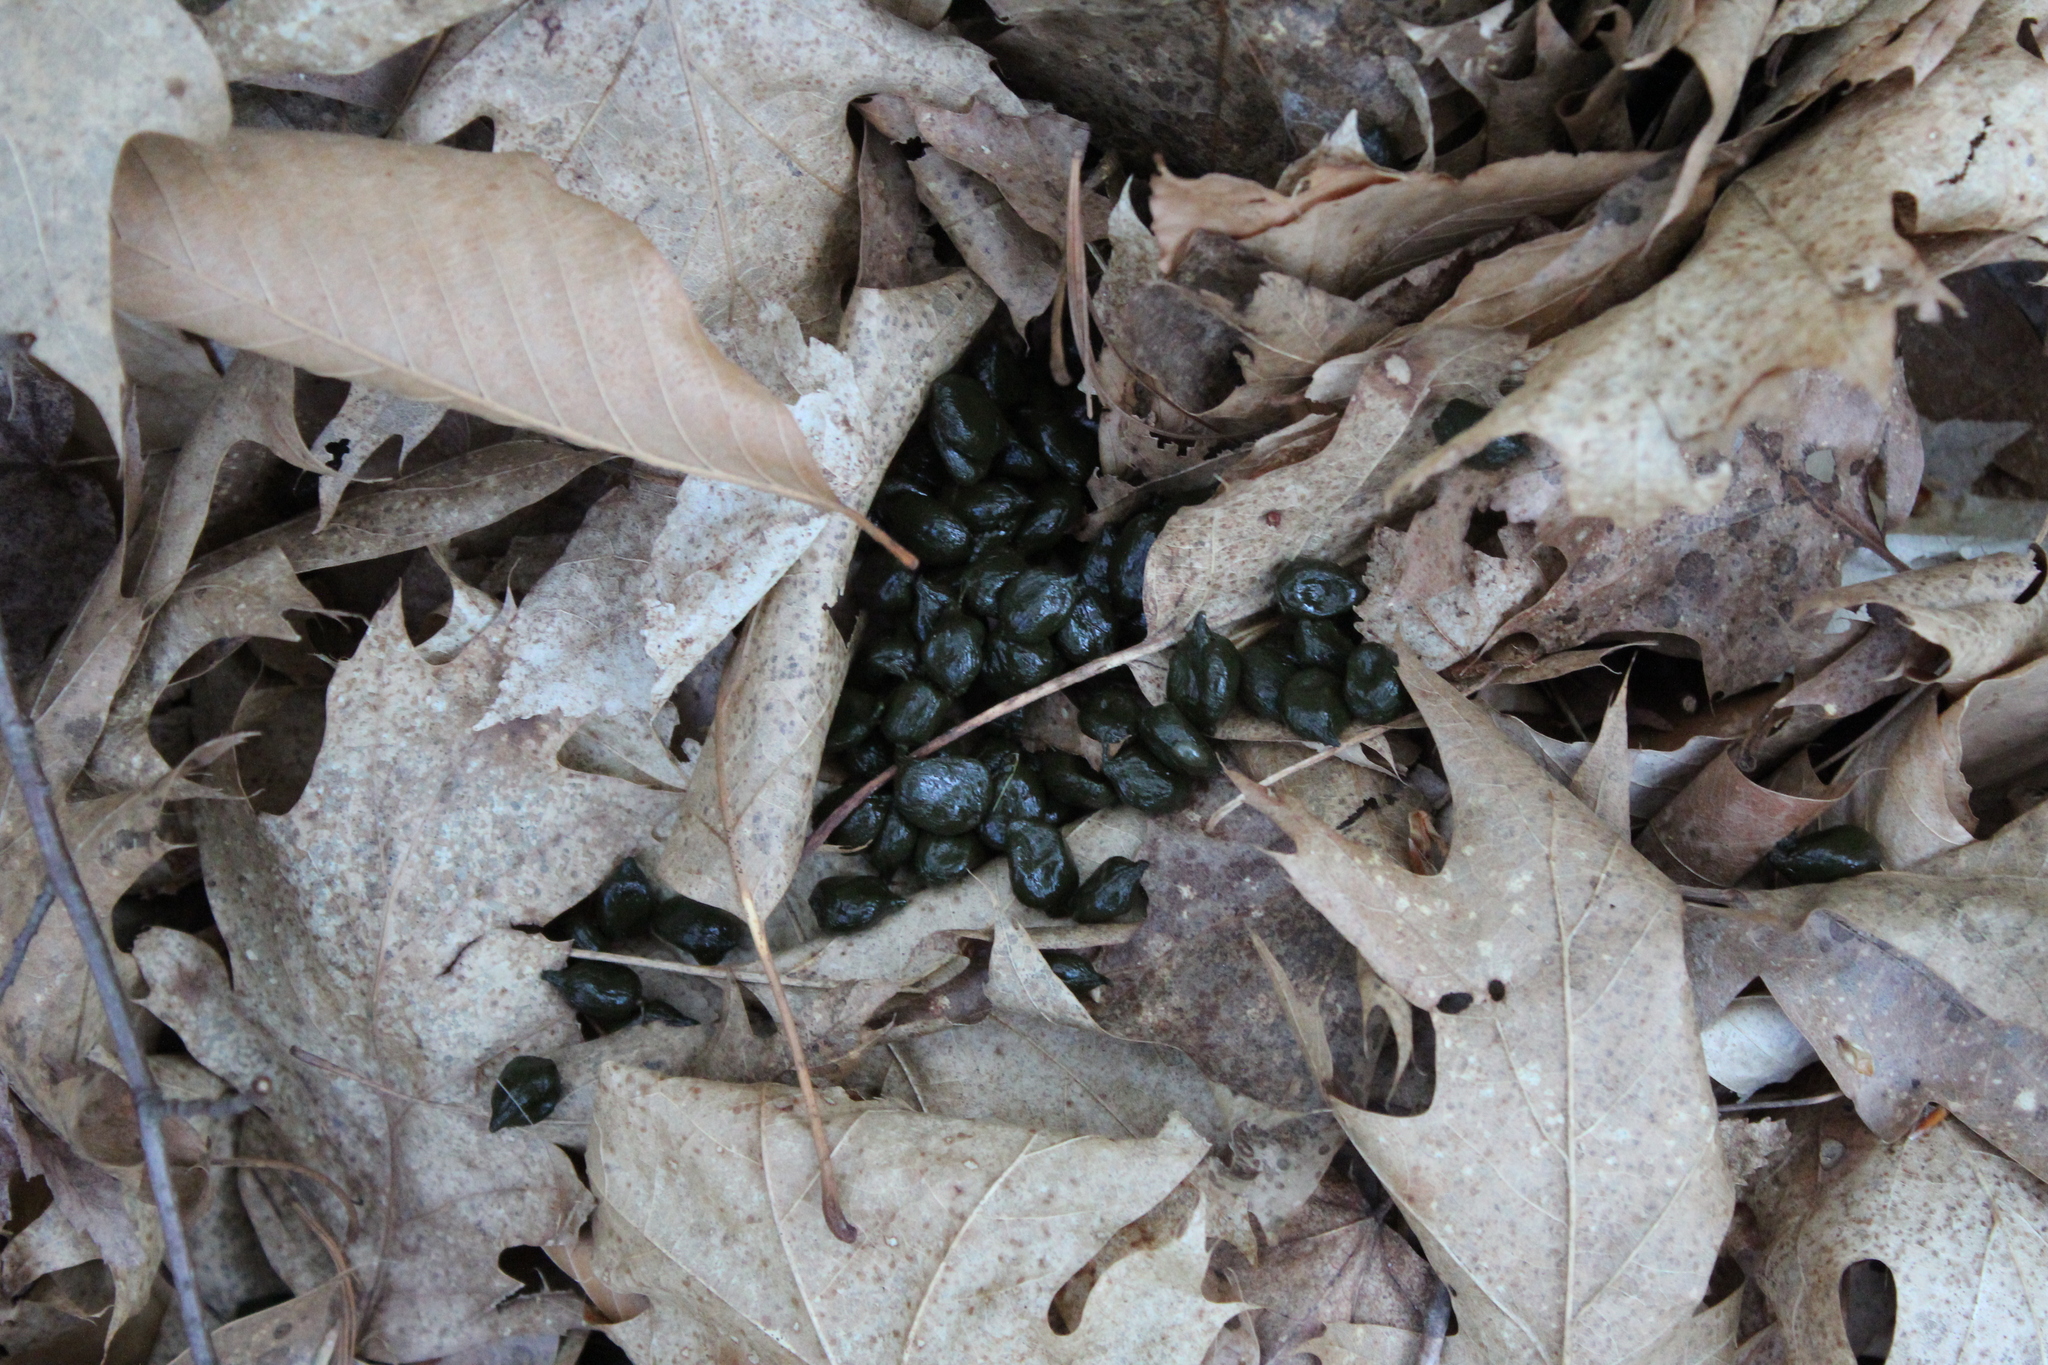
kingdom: Animalia
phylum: Chordata
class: Mammalia
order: Artiodactyla
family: Cervidae
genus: Odocoileus
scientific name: Odocoileus virginianus
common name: White-tailed deer
